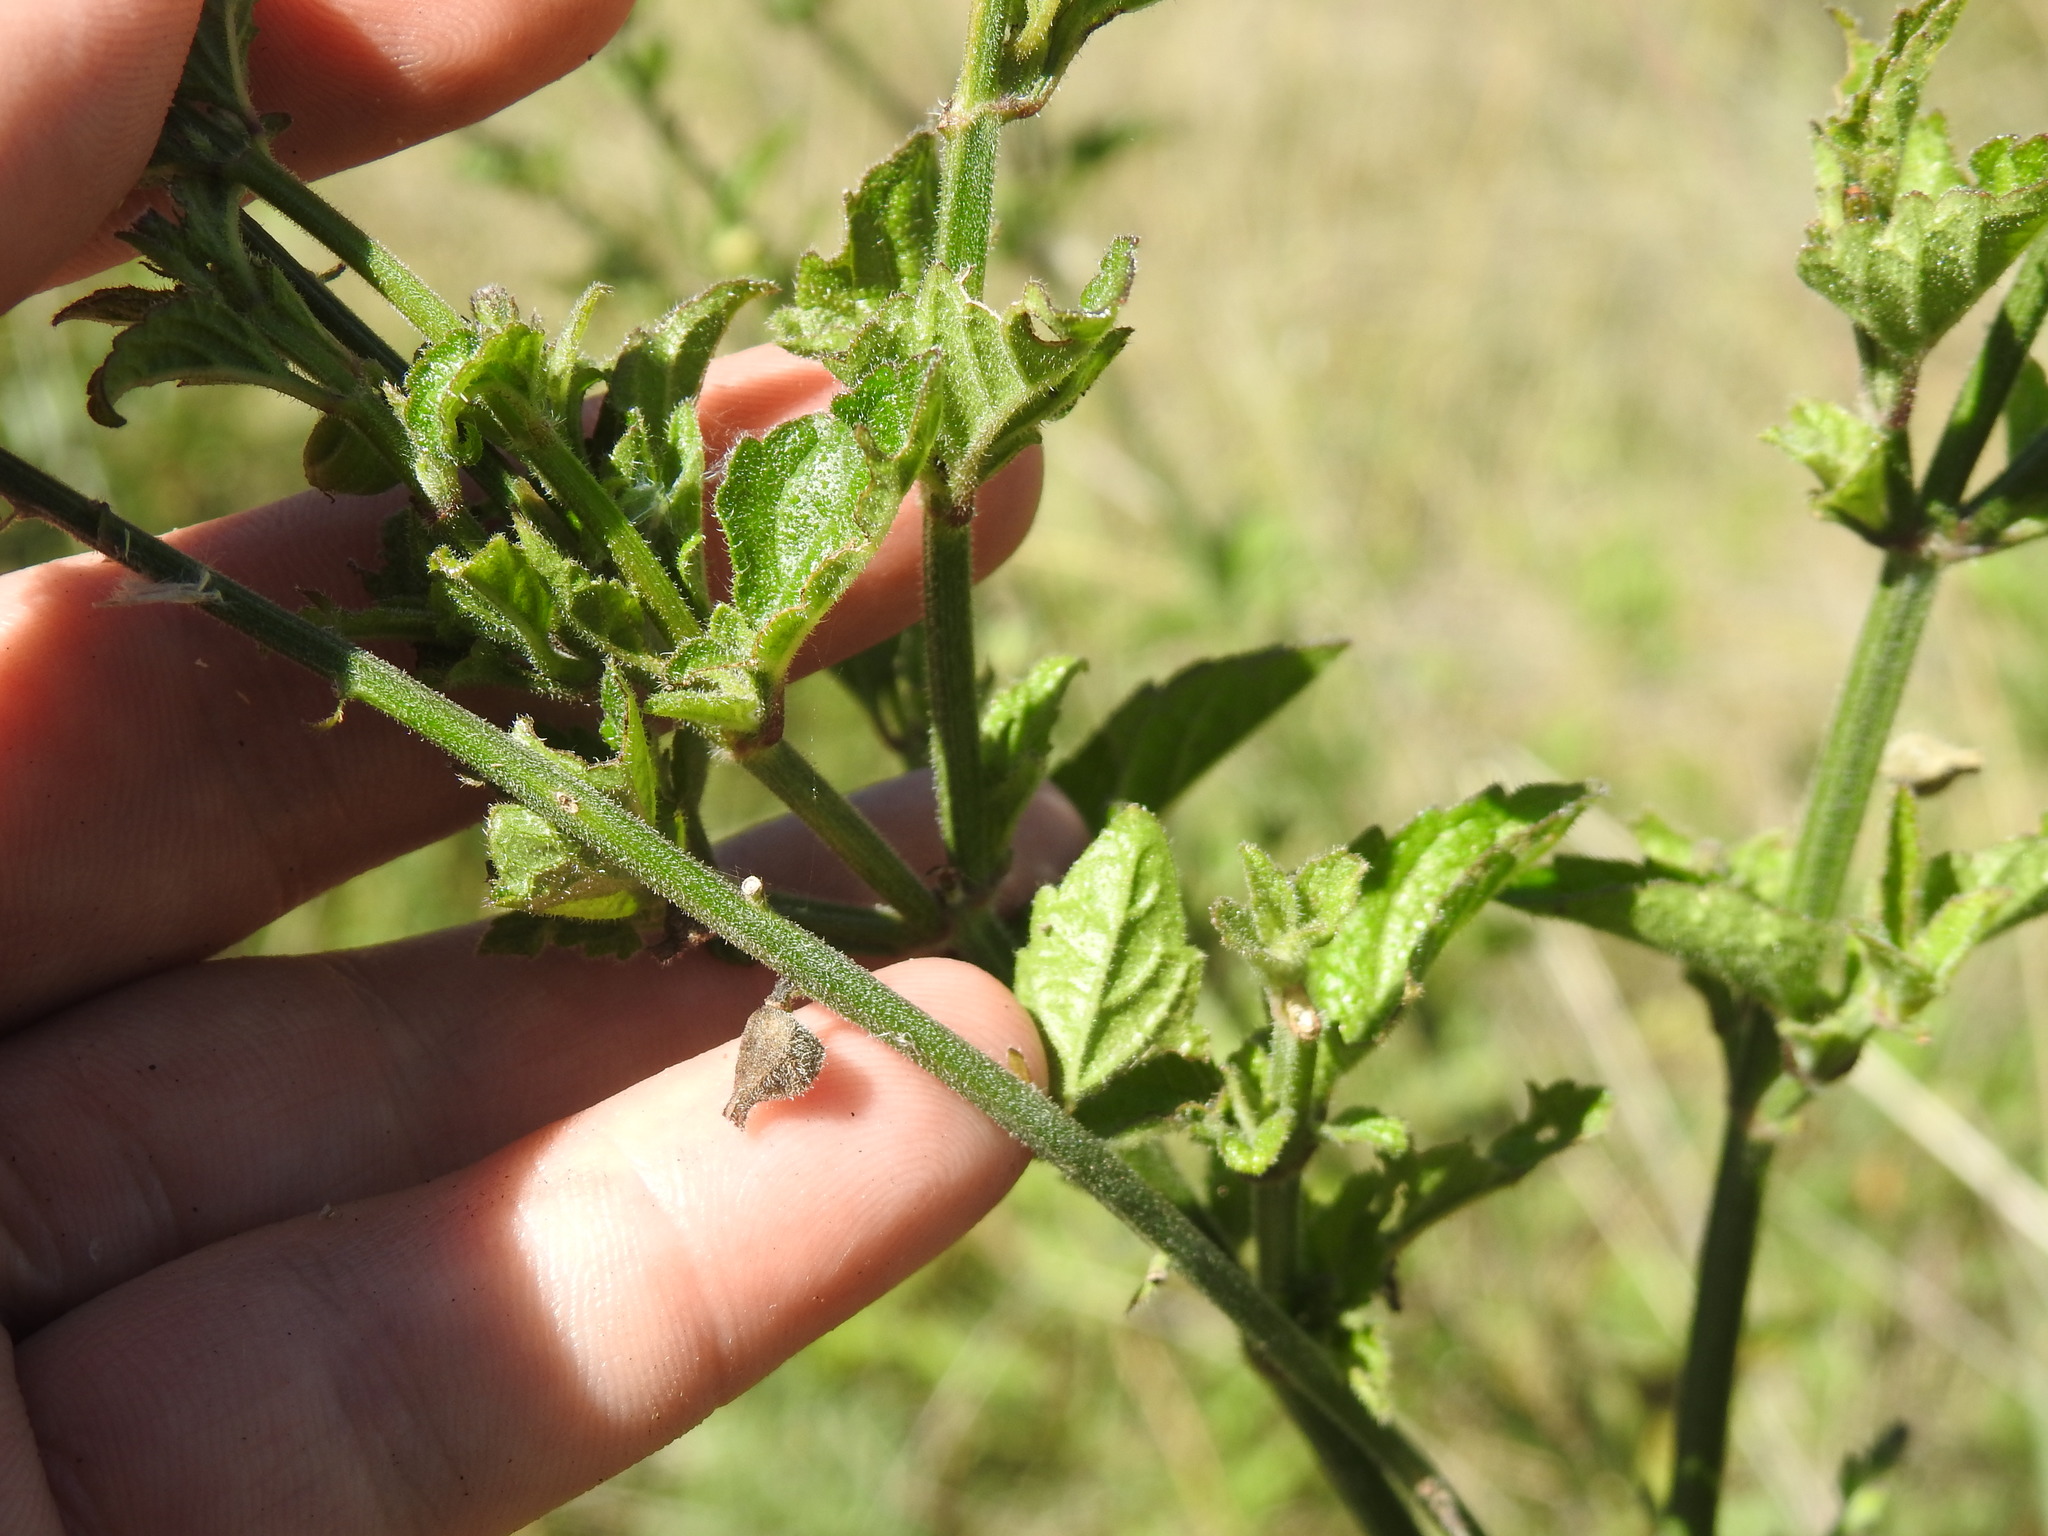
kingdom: Plantae
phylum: Tracheophyta
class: Magnoliopsida
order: Lamiales
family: Verbenaceae
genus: Priva
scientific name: Priva adhaerens
